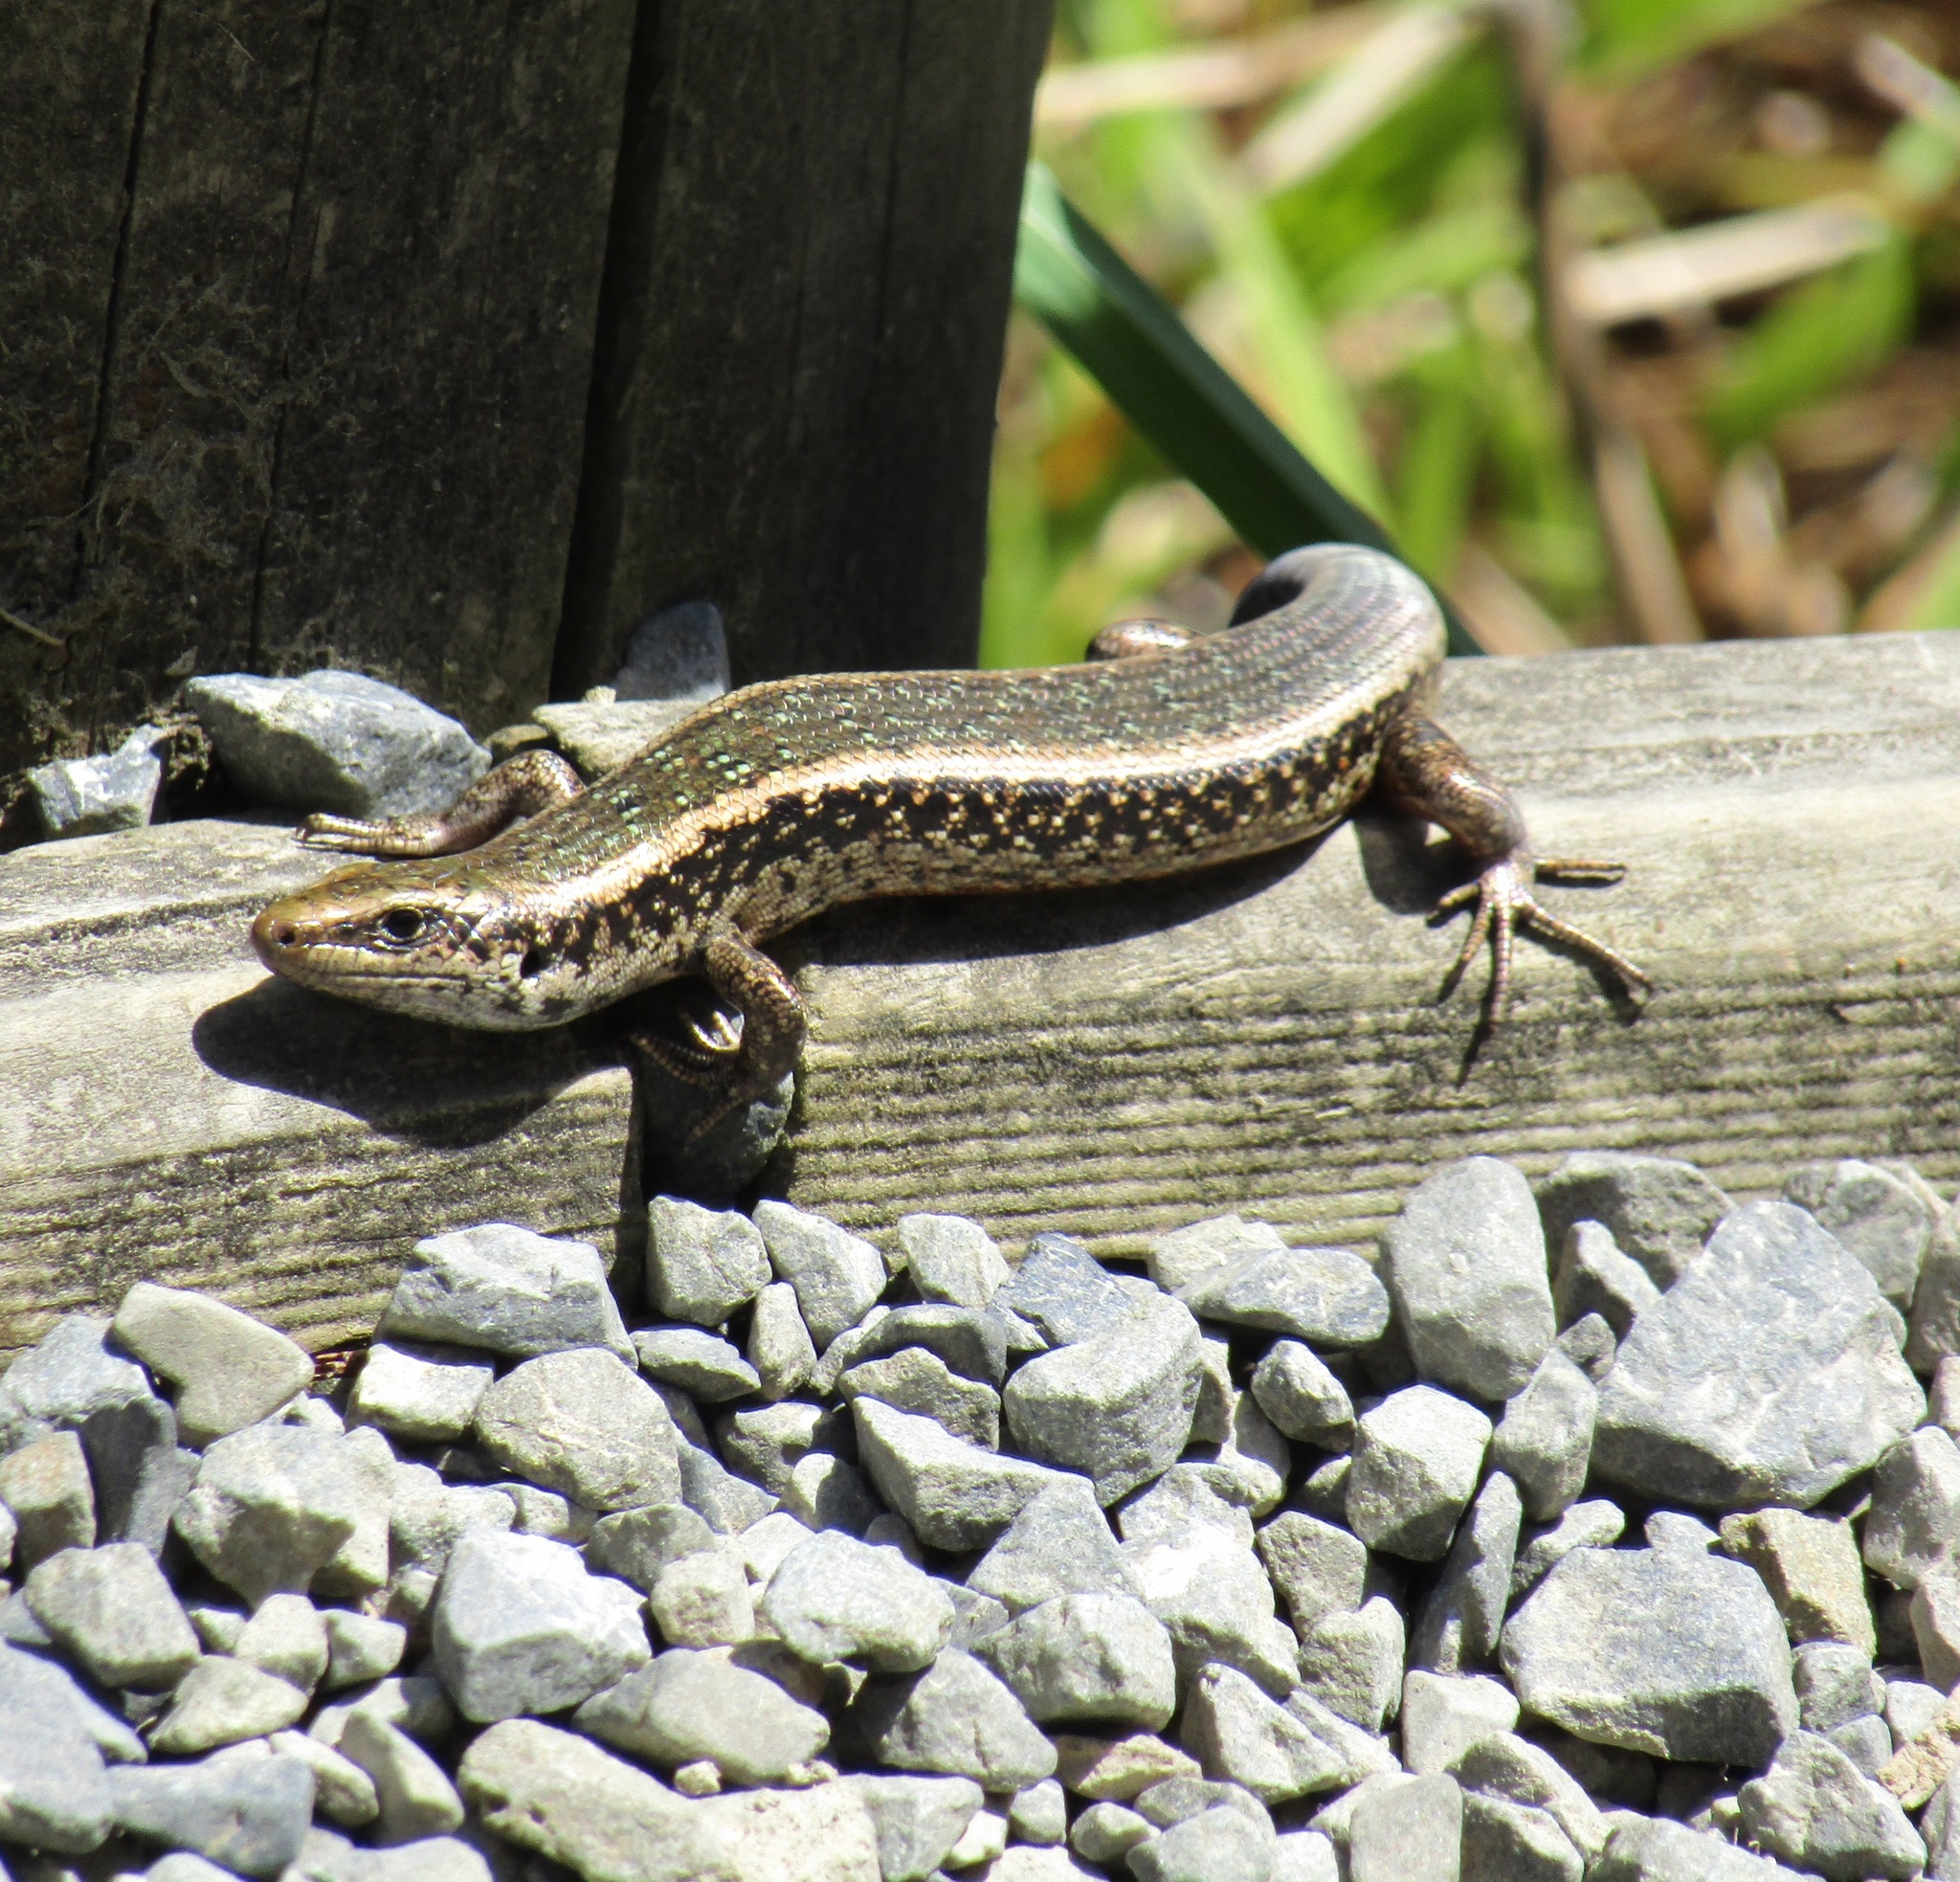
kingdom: Animalia
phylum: Chordata
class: Squamata
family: Scincidae
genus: Oligosoma
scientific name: Oligosoma kokowai
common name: Northern spotted skink
